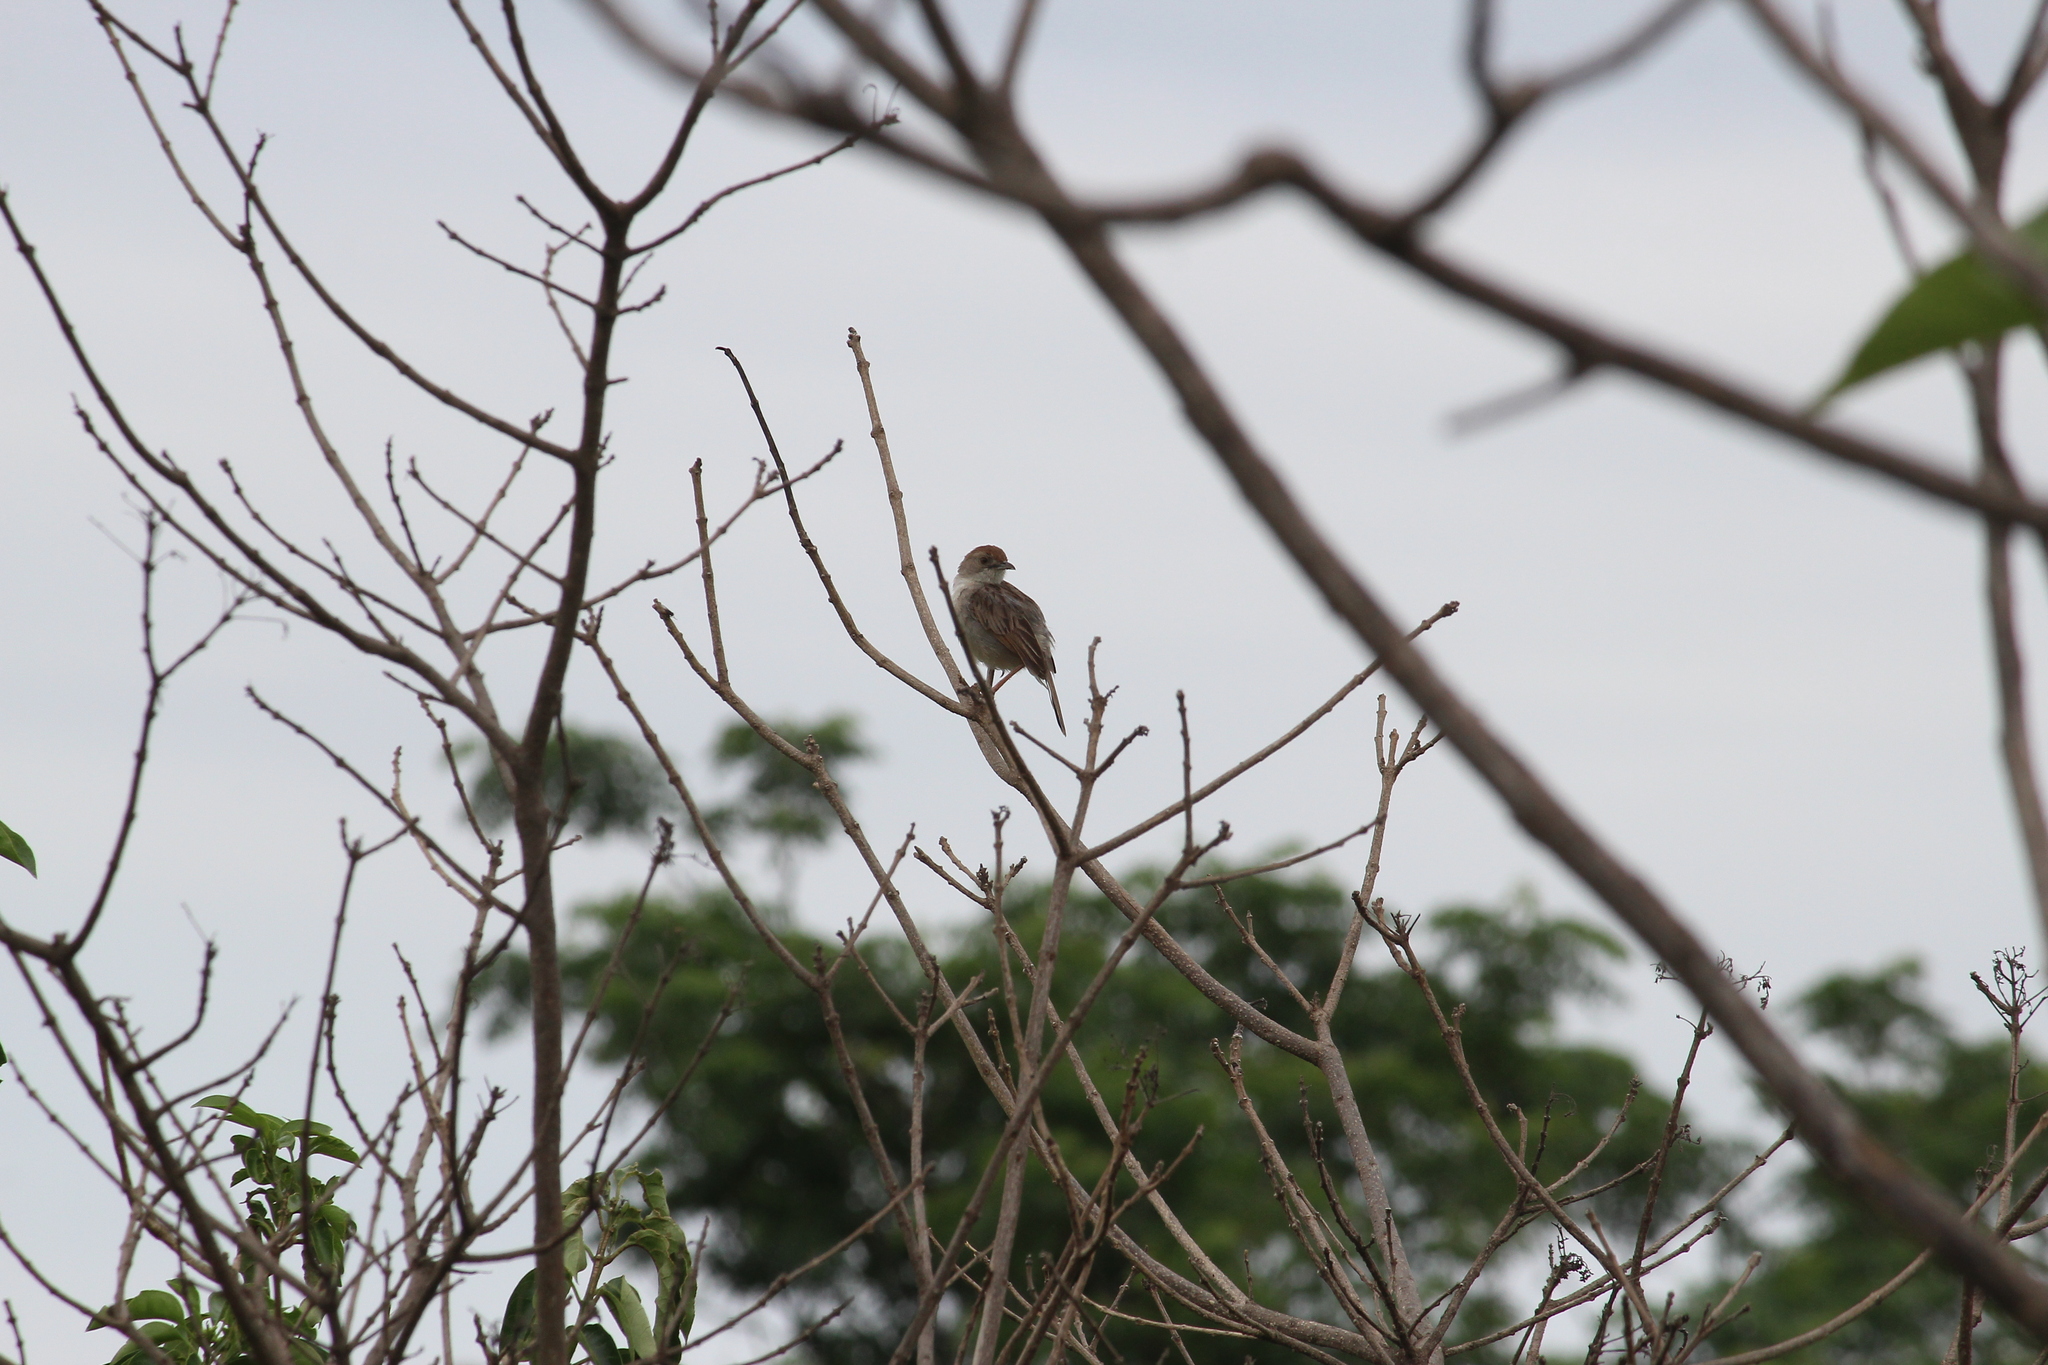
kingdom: Animalia
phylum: Chordata
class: Aves
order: Passeriformes
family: Cisticolidae
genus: Cisticola
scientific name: Cisticola chiniana
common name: Rattling cisticola
